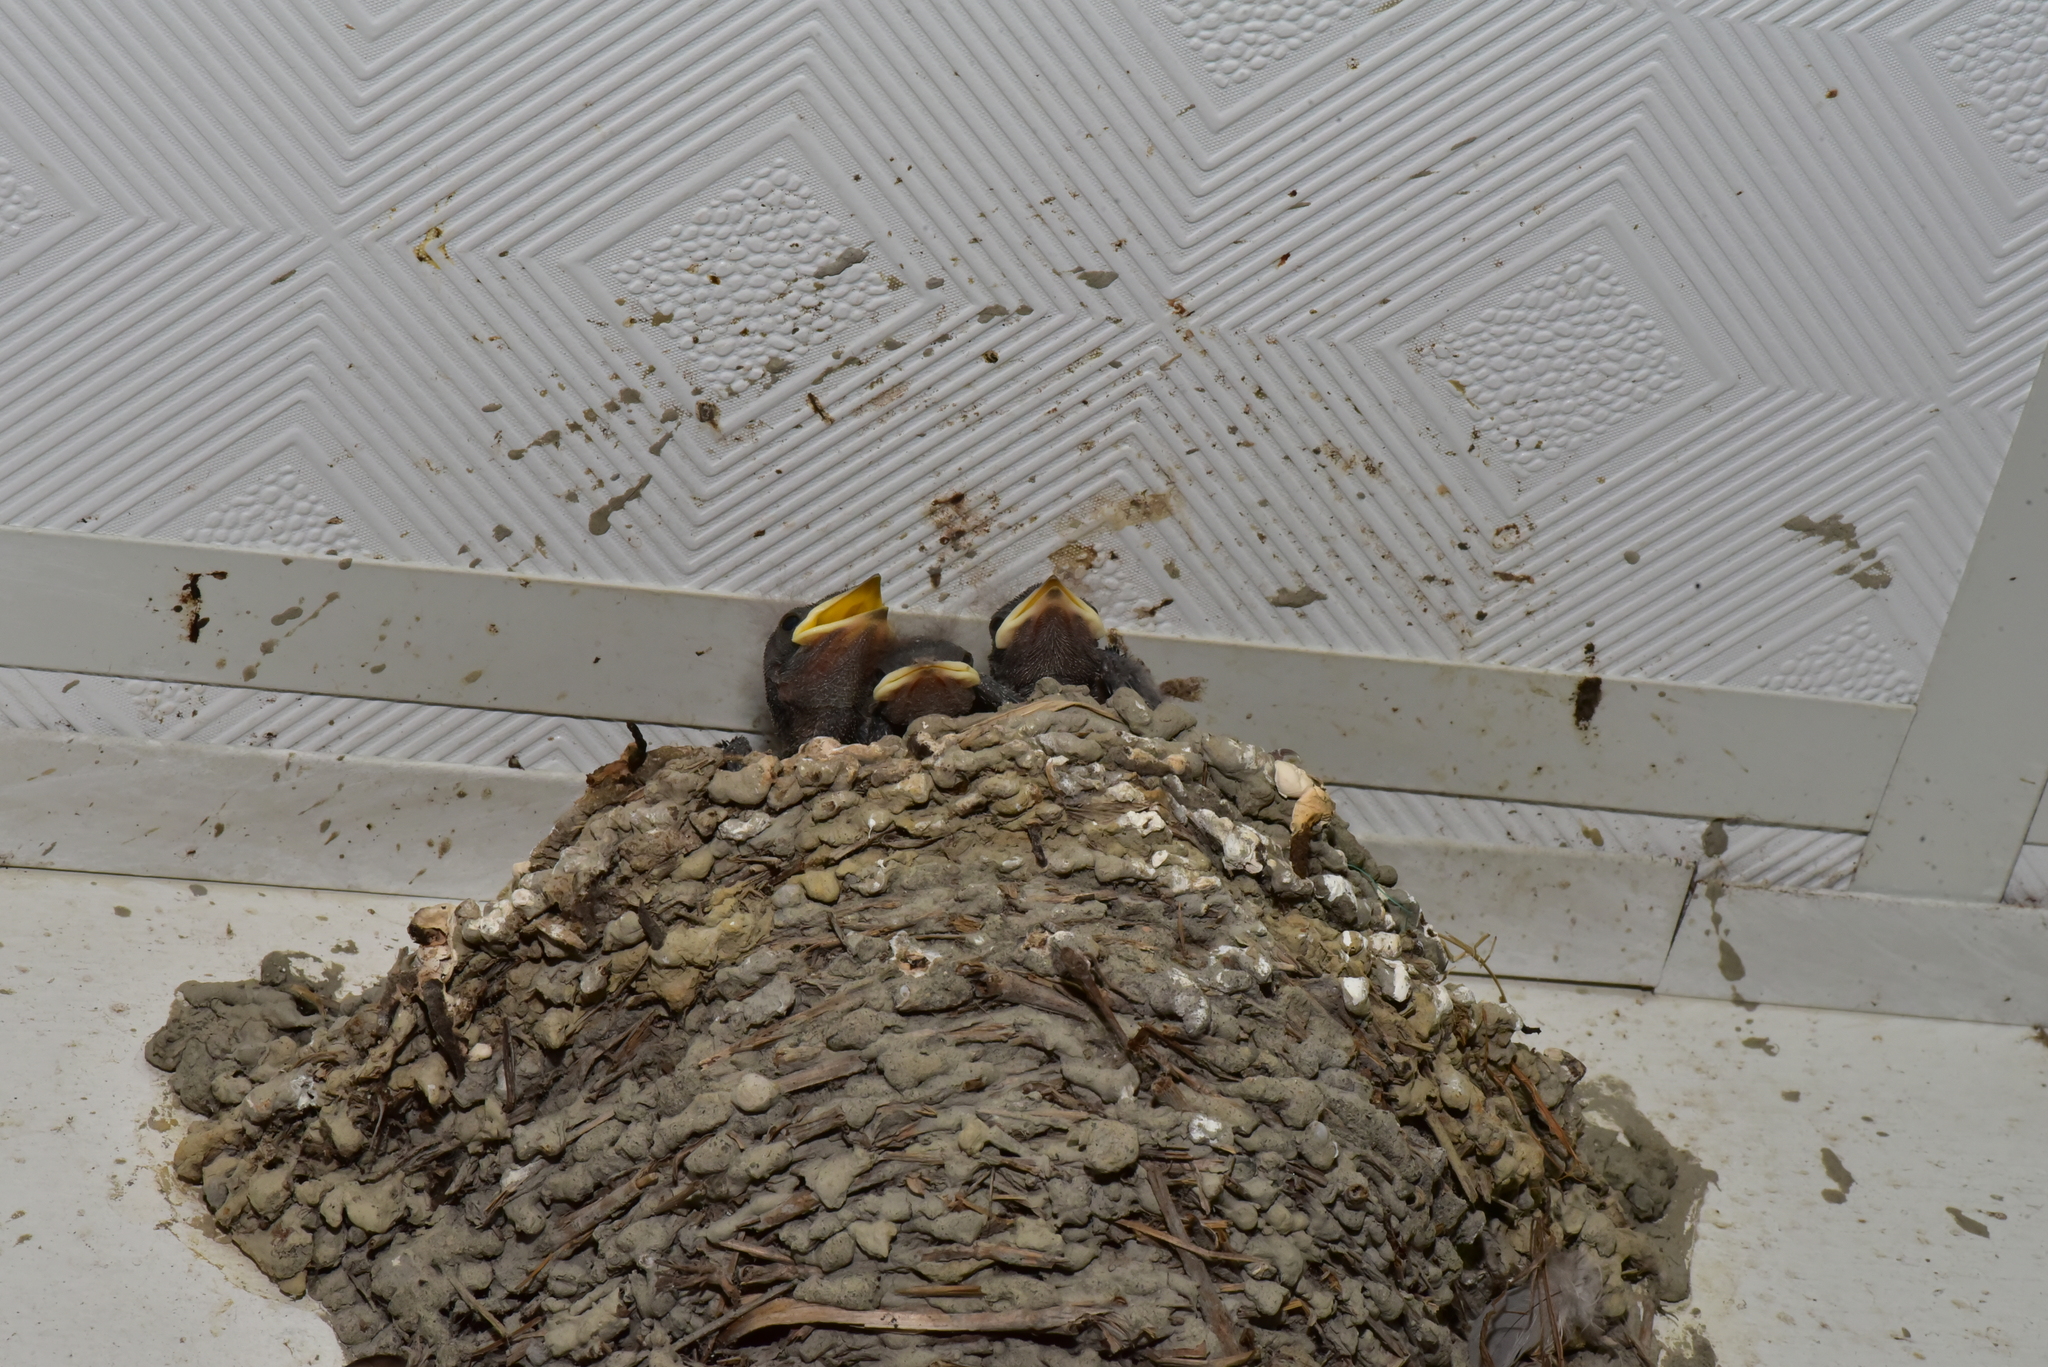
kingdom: Animalia
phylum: Chordata
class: Aves
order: Passeriformes
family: Hirundinidae
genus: Hirundo
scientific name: Hirundo rustica
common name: Barn swallow
